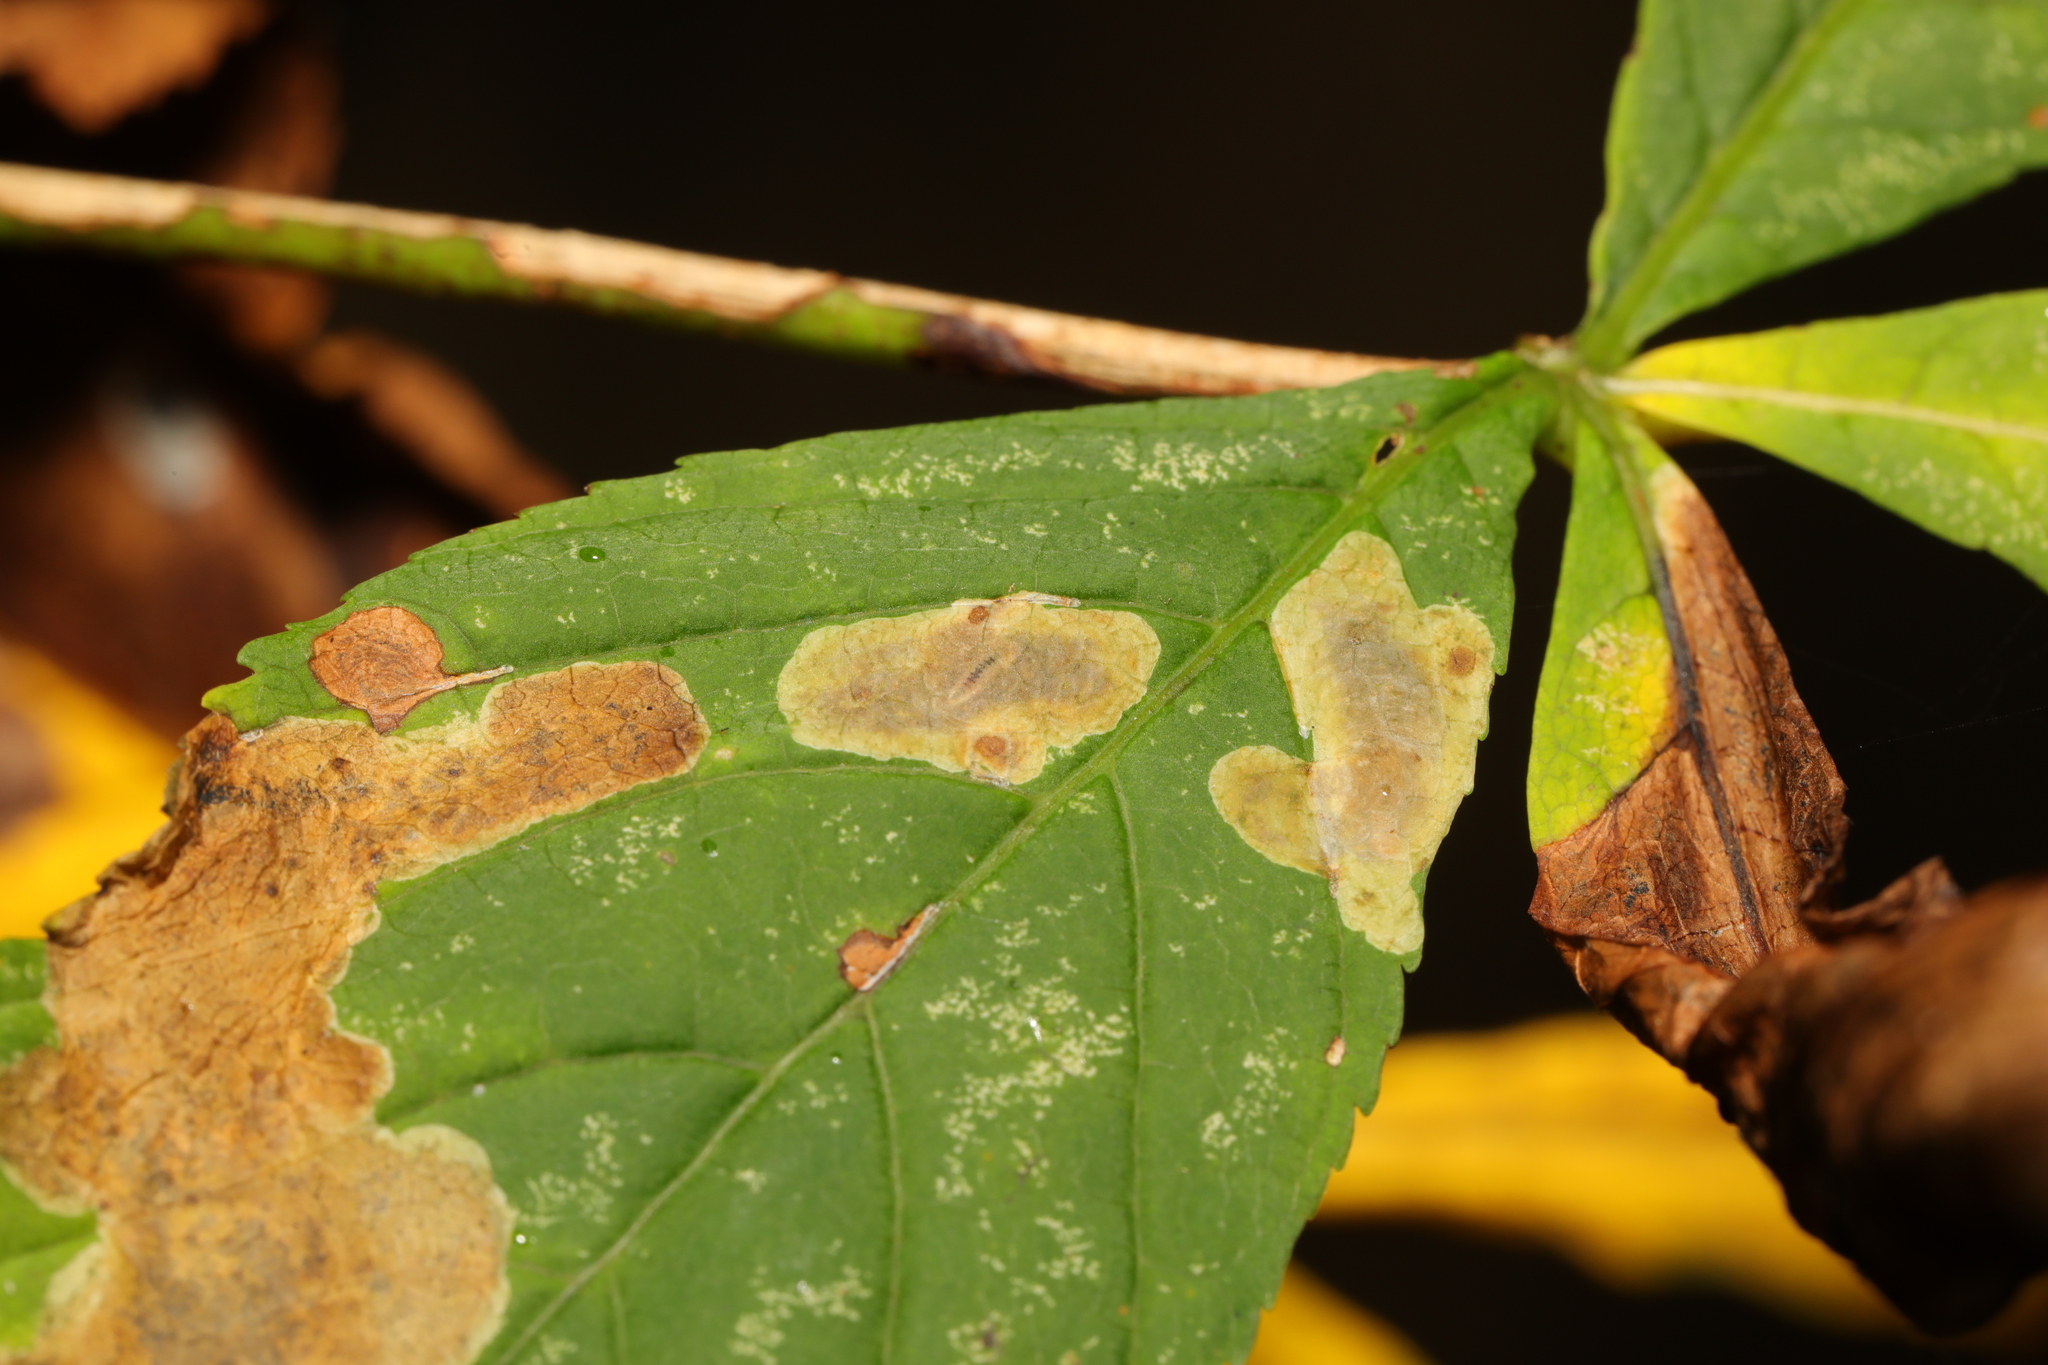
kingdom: Animalia
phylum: Arthropoda
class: Insecta
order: Lepidoptera
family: Gracillariidae
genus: Cameraria
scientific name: Cameraria ohridella
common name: Horse-chestnut leaf-miner
